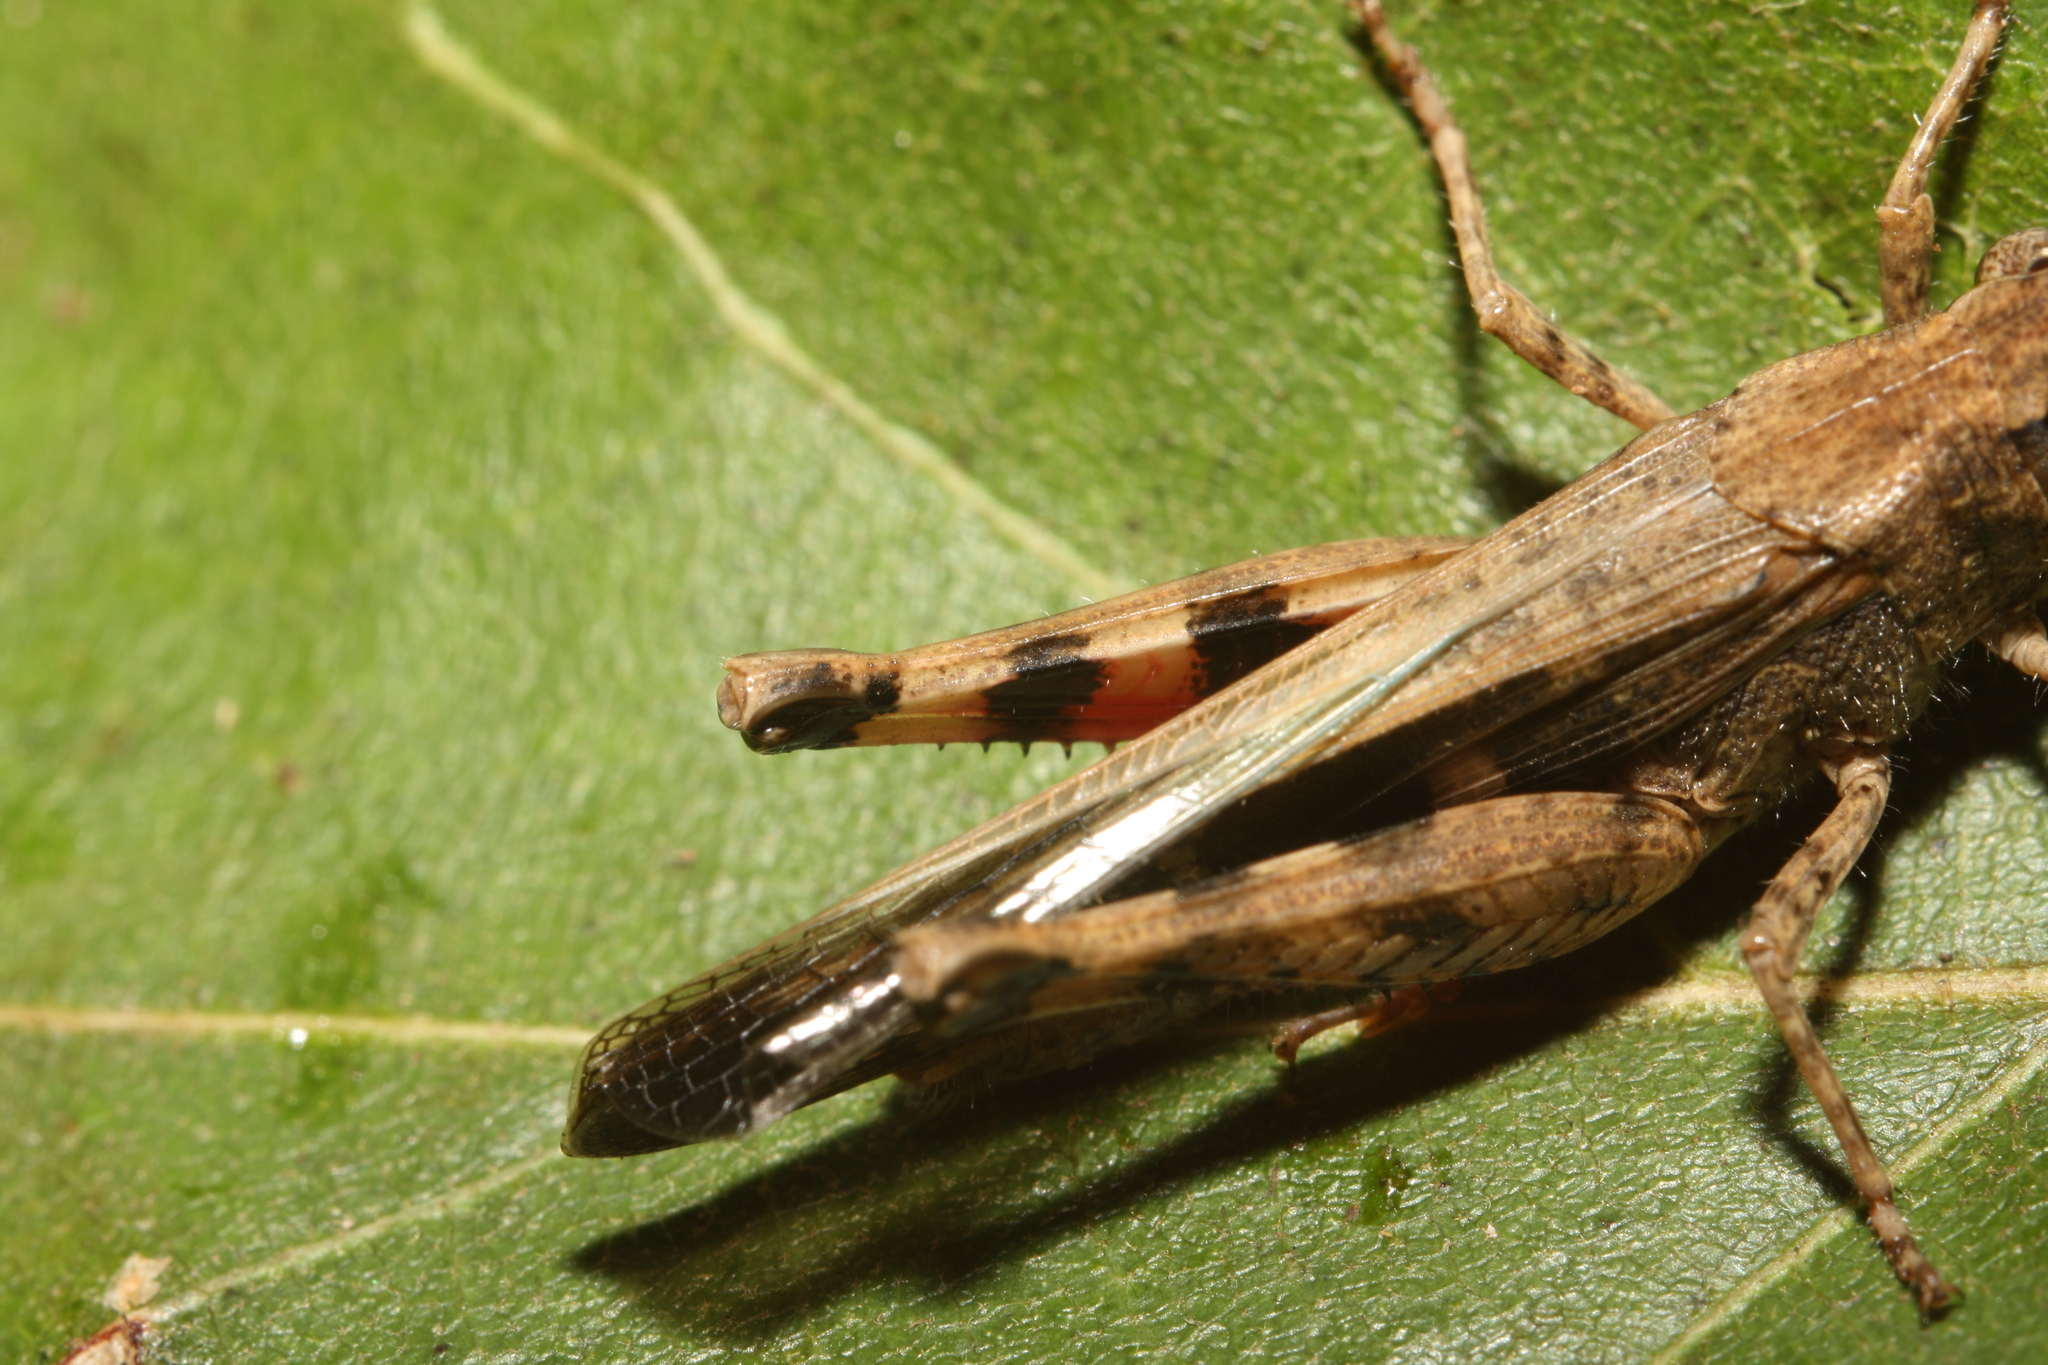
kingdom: Animalia
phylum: Arthropoda
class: Insecta
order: Orthoptera
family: Acrididae
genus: Aiolopus
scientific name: Aiolopus strepens
